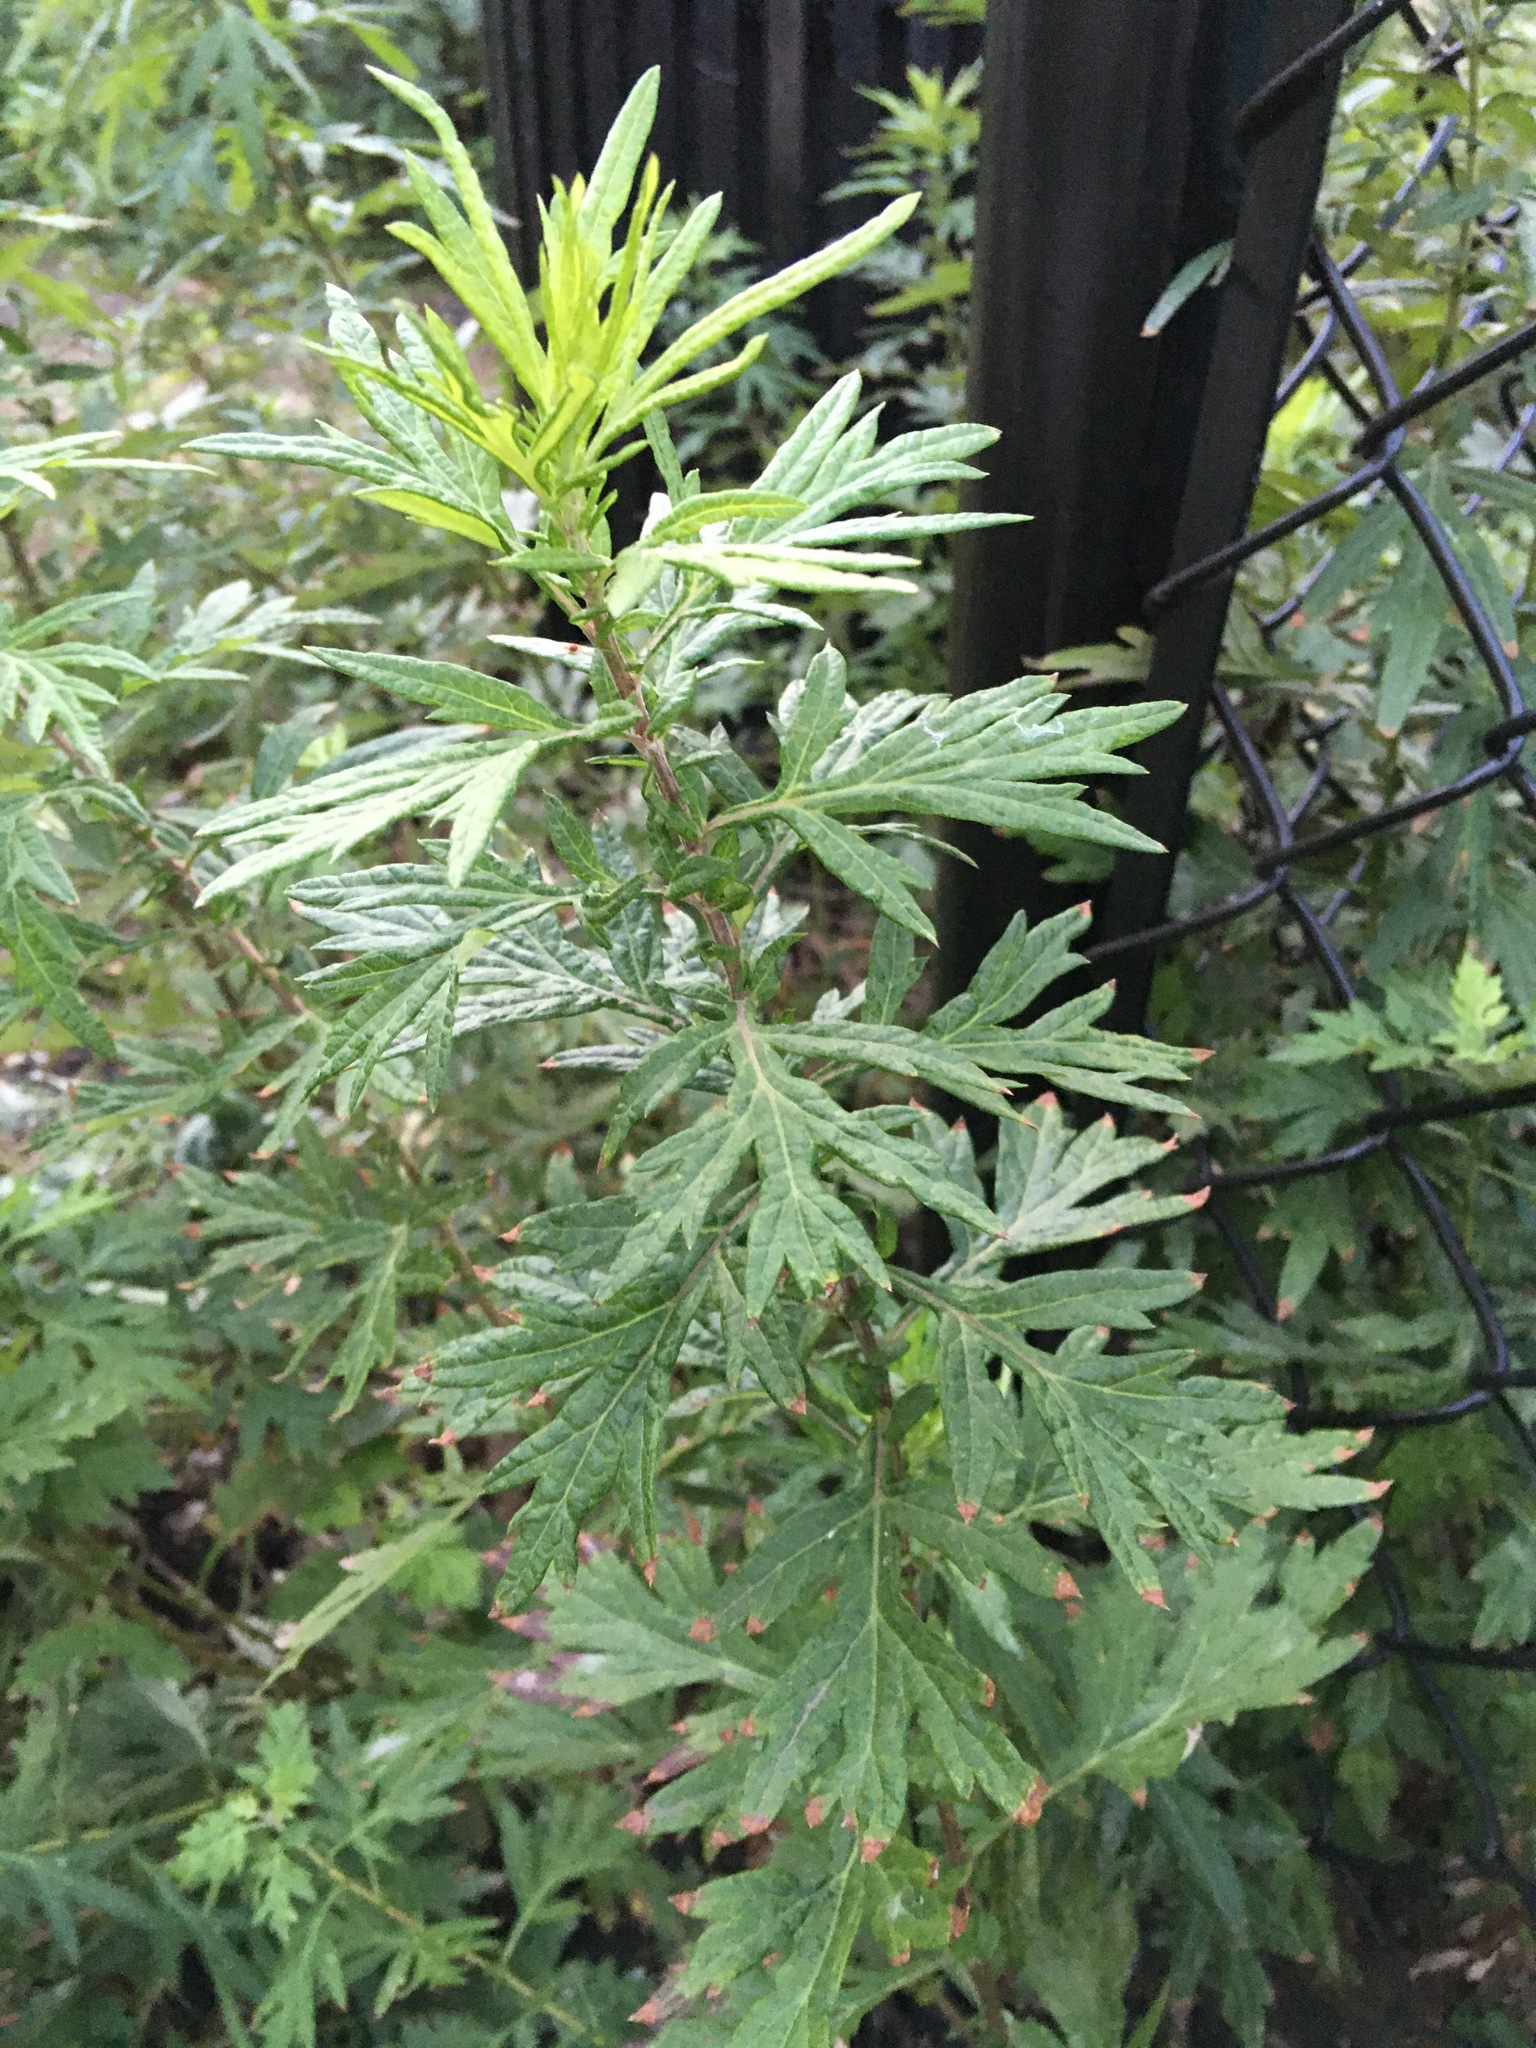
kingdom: Plantae
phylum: Tracheophyta
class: Magnoliopsida
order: Asterales
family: Asteraceae
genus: Artemisia
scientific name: Artemisia vulgaris
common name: Mugwort
